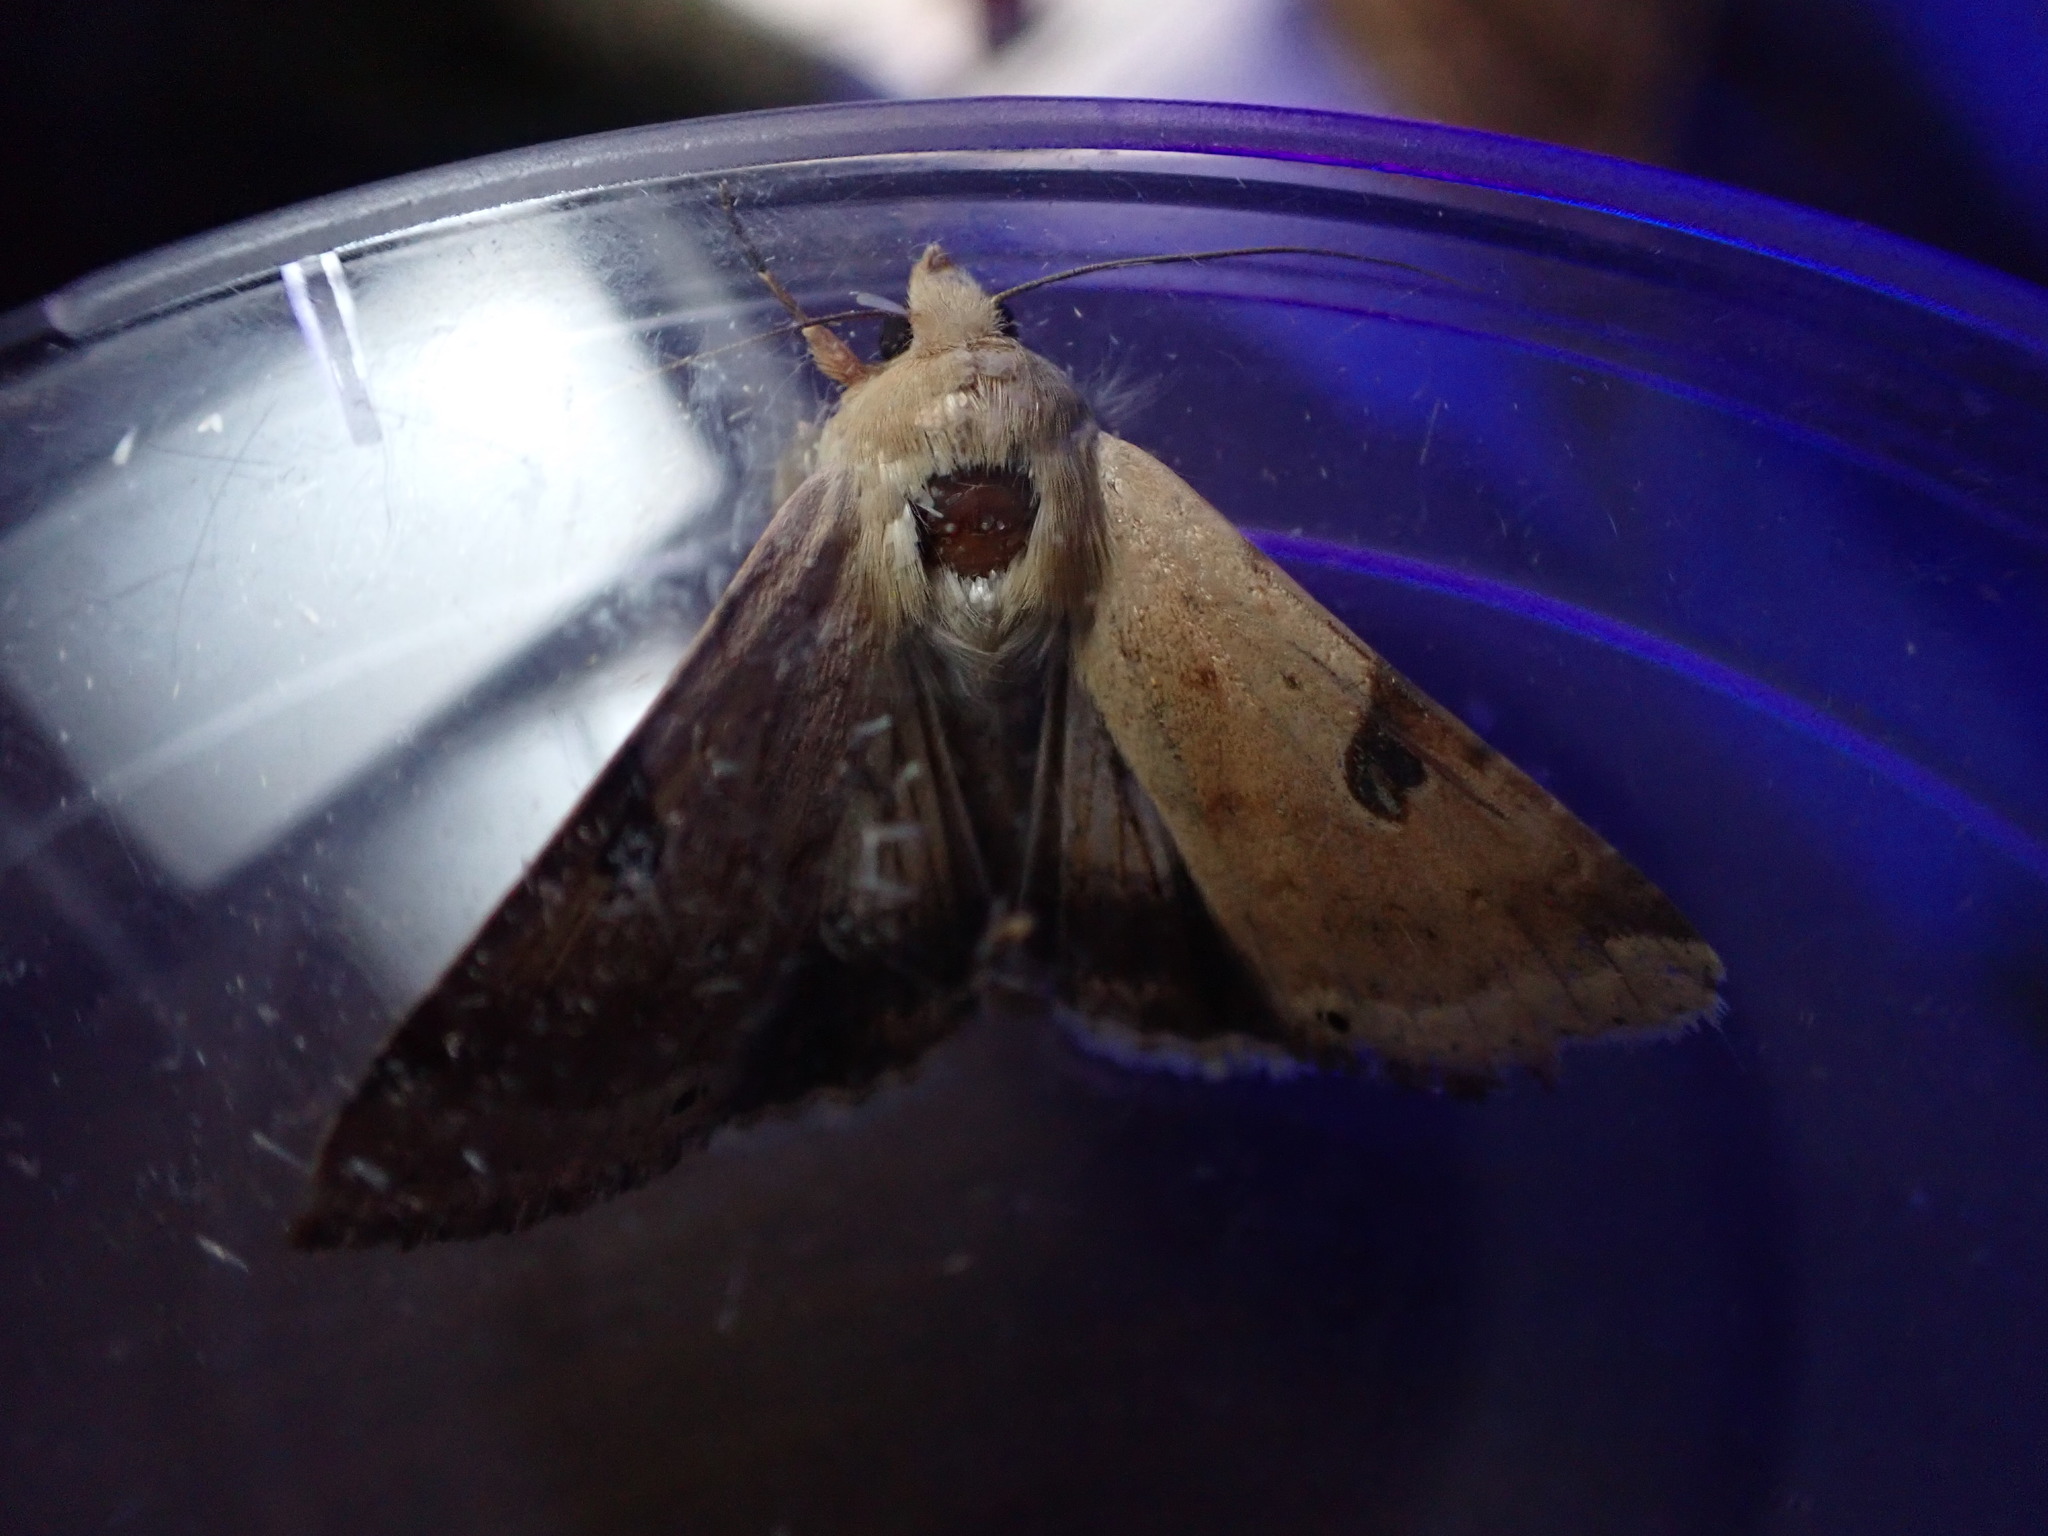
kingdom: Animalia
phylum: Arthropoda
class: Insecta
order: Lepidoptera
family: Noctuidae
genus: Heliothis
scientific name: Heliothis peltigera
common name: Bordered straw
